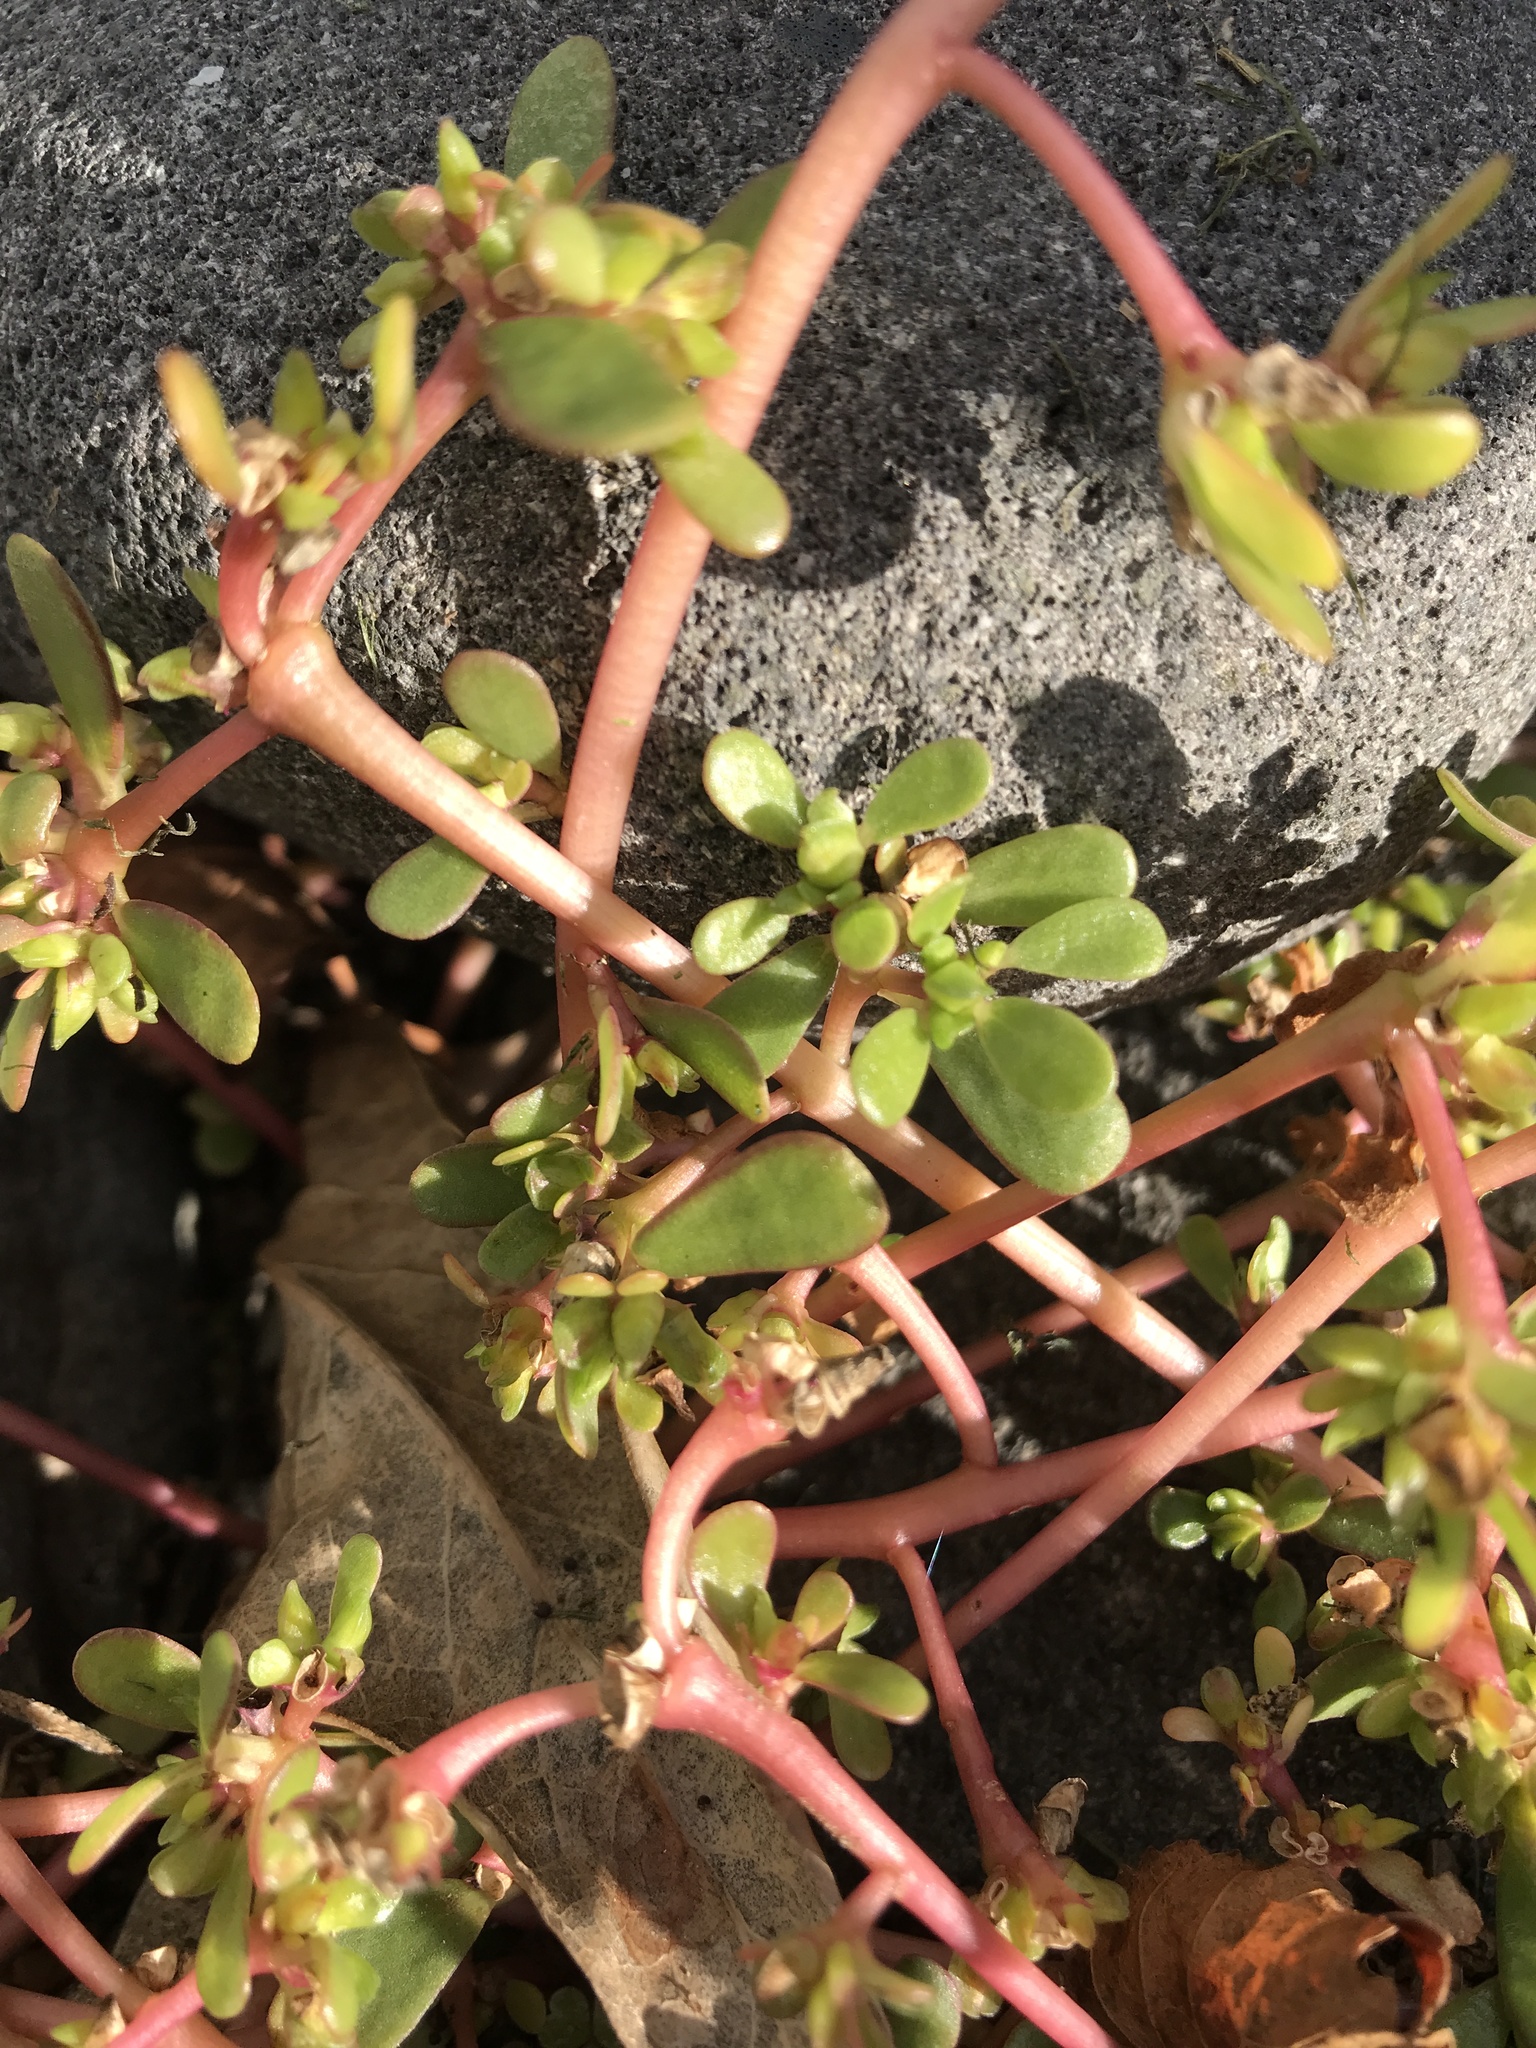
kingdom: Plantae
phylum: Tracheophyta
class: Magnoliopsida
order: Caryophyllales
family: Portulacaceae
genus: Portulaca
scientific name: Portulaca oleracea
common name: Common purslane
